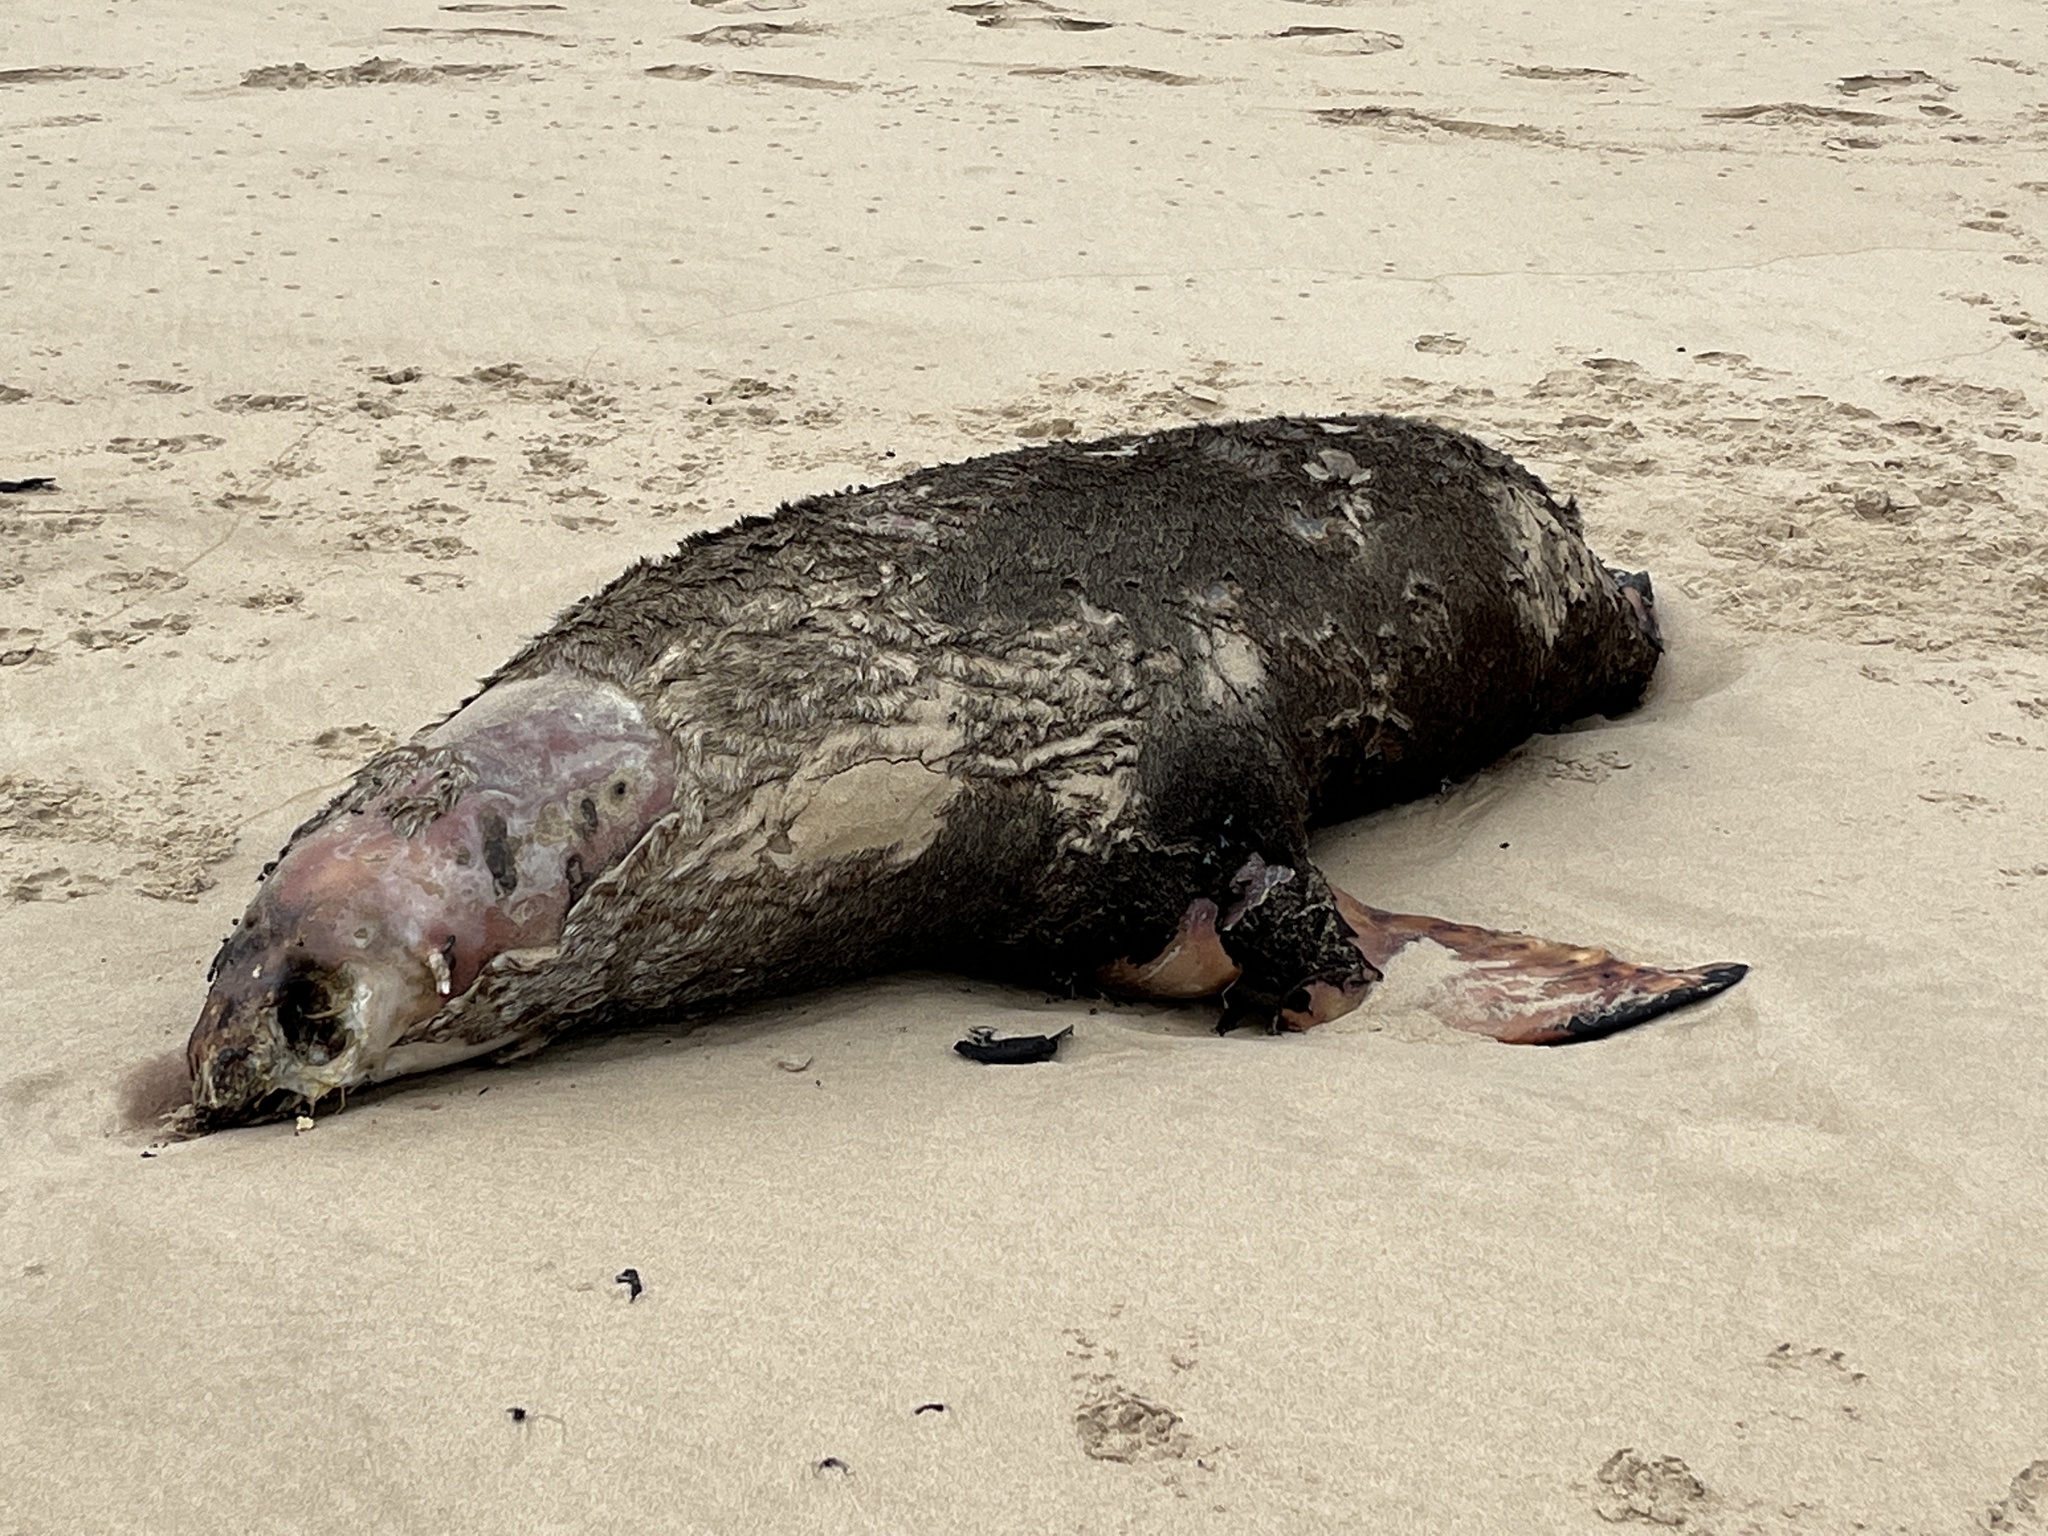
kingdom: Animalia
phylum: Chordata
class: Mammalia
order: Carnivora
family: Otariidae
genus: Arctocephalus
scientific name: Arctocephalus pusillus
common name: Brown fur seal
